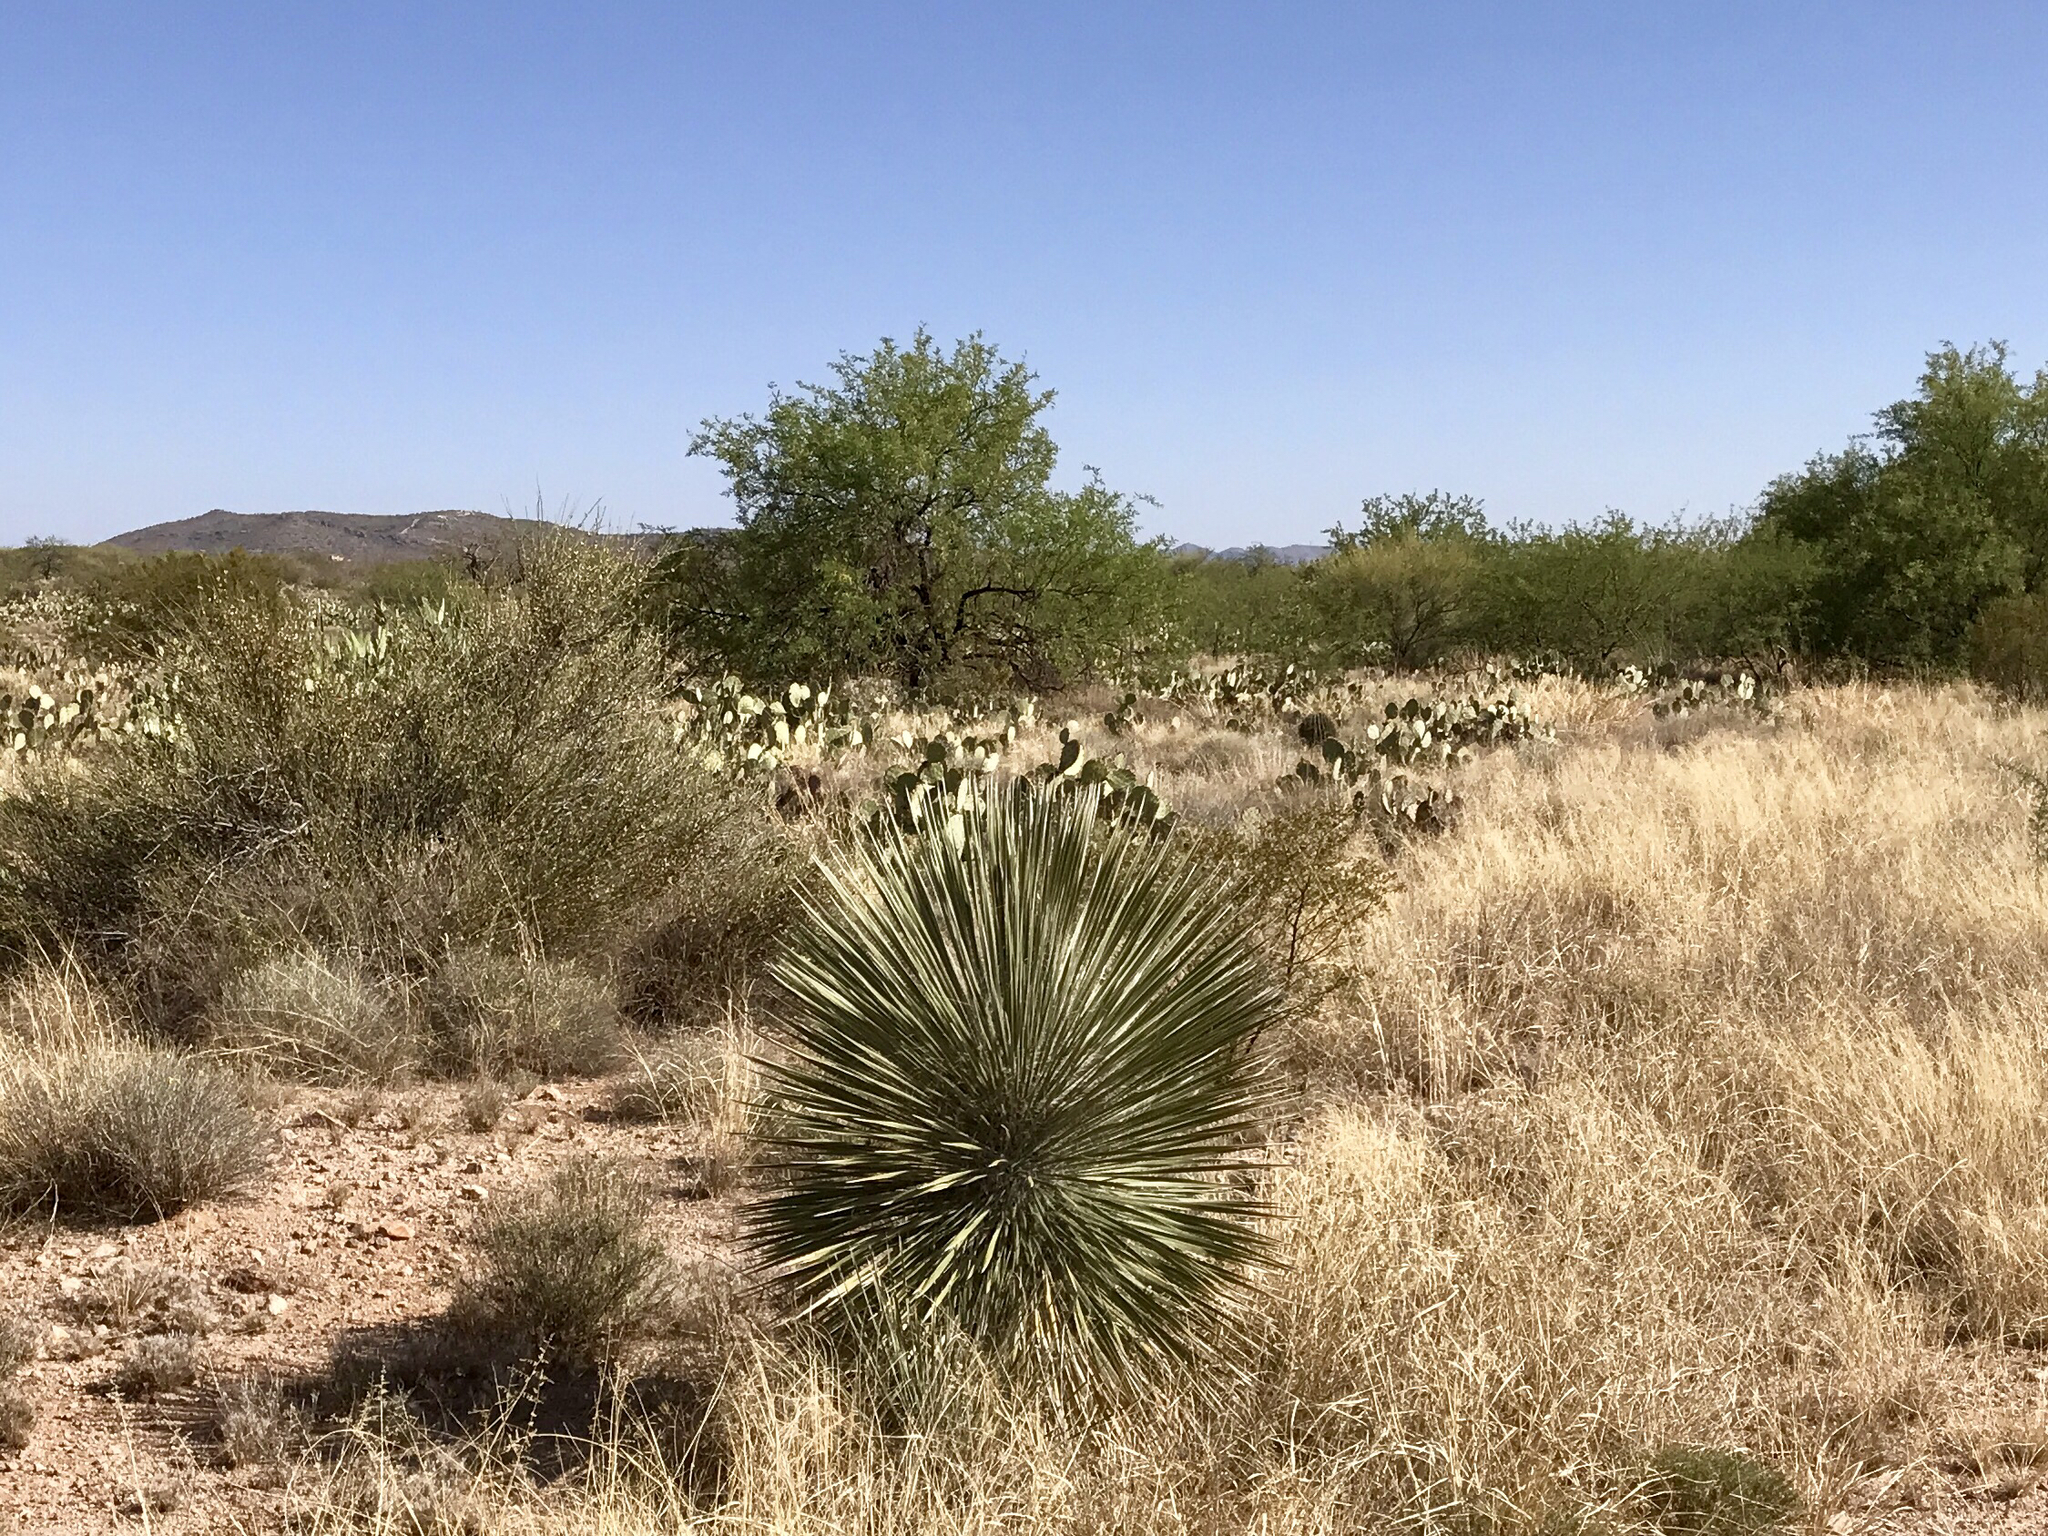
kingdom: Plantae
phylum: Tracheophyta
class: Liliopsida
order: Asparagales
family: Asparagaceae
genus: Yucca
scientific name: Yucca elata
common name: Palmella
